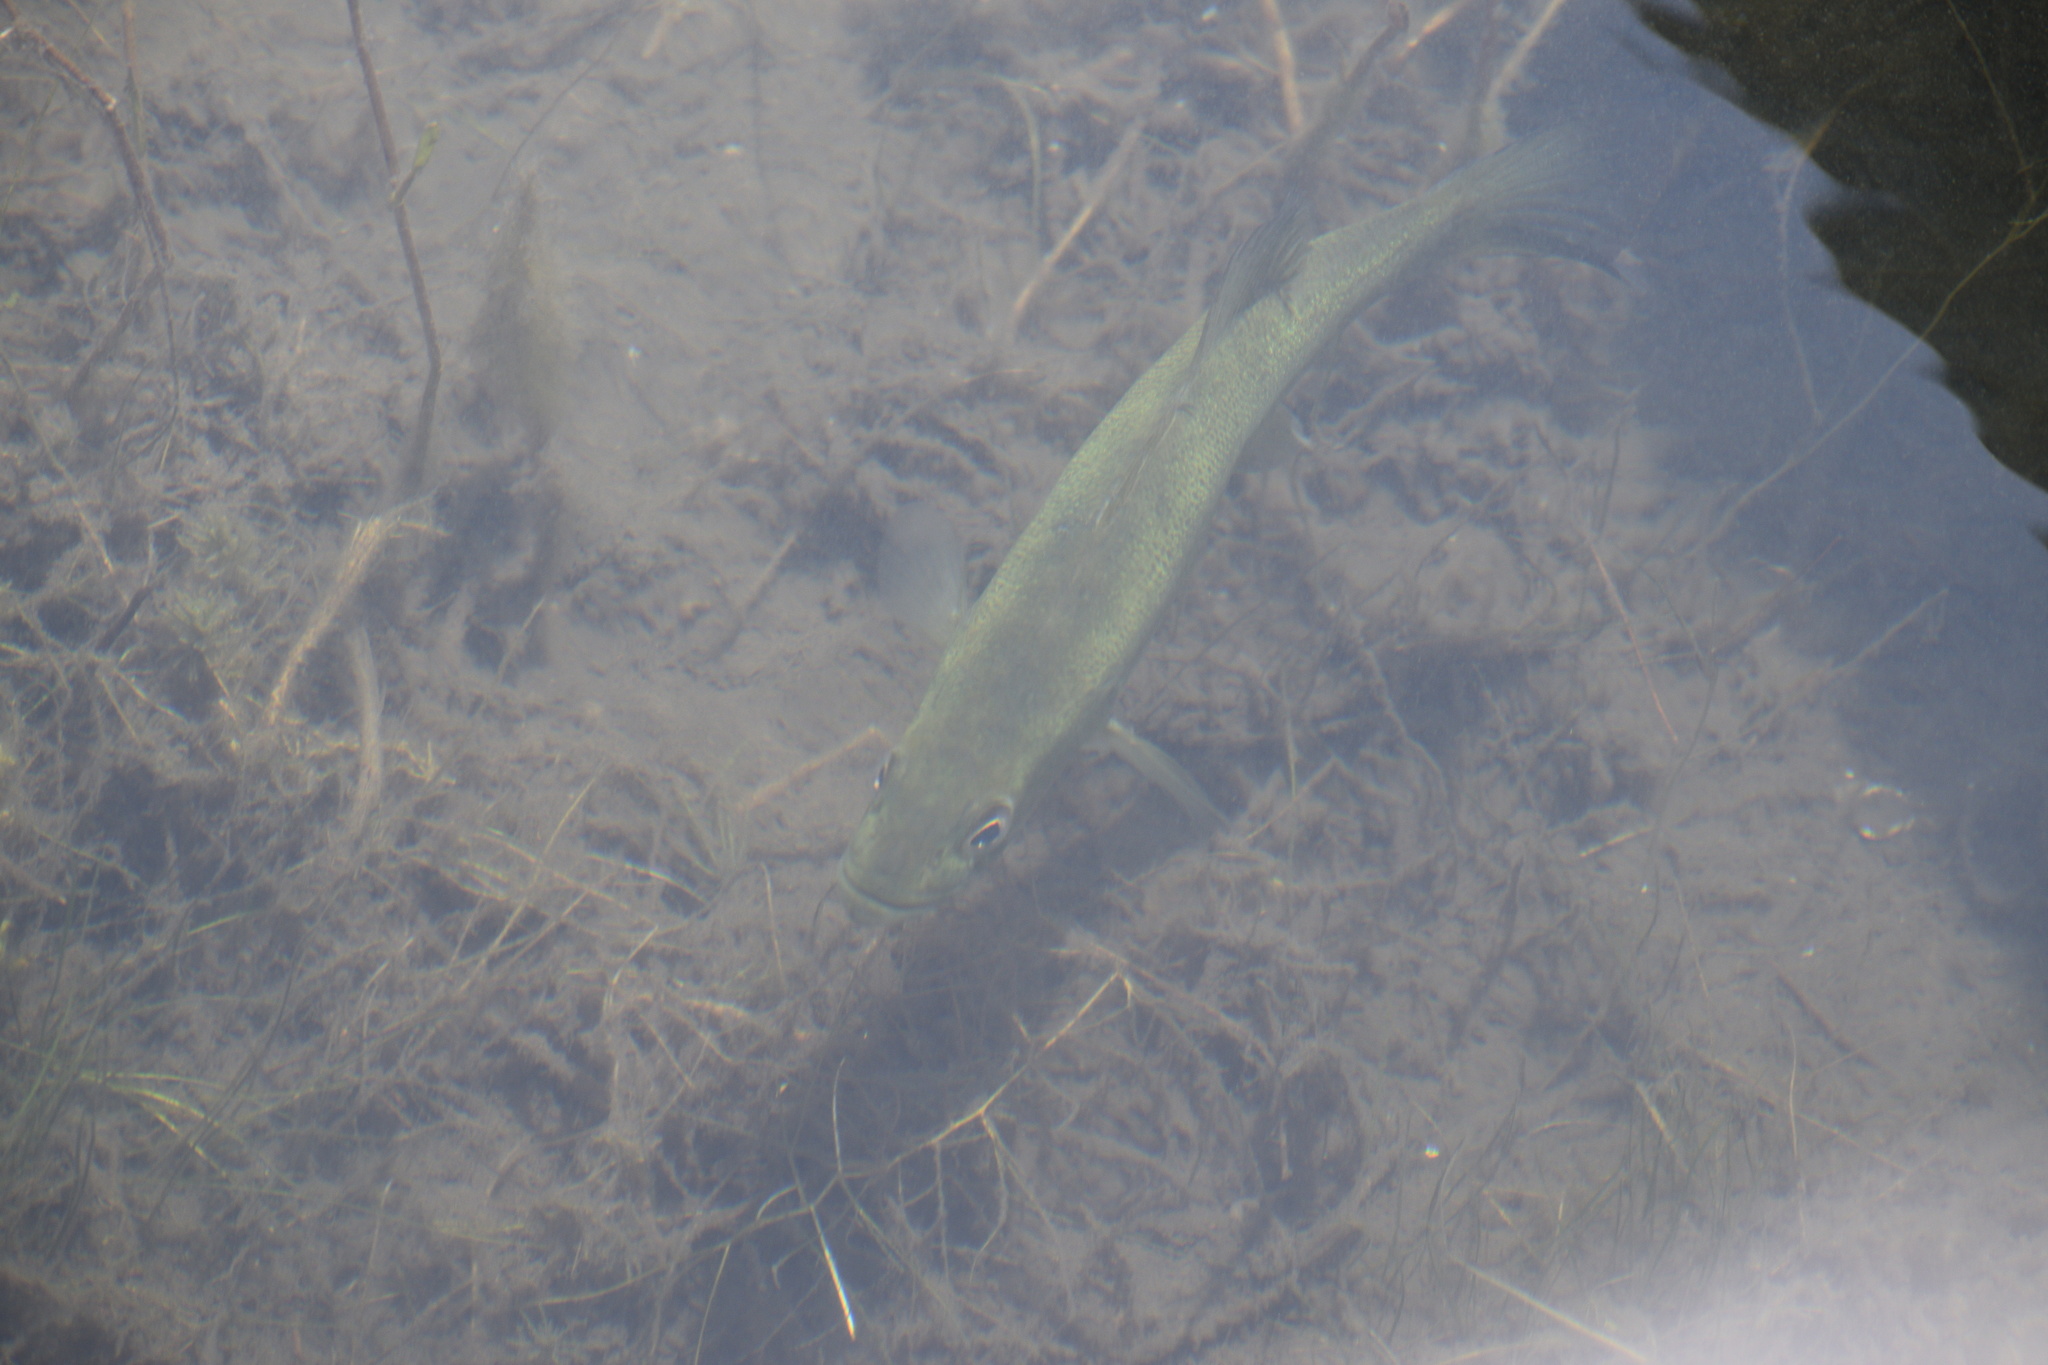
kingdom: Animalia
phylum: Chordata
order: Perciformes
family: Centrarchidae
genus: Micropterus
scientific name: Micropterus salmoides
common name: Largemouth bass
